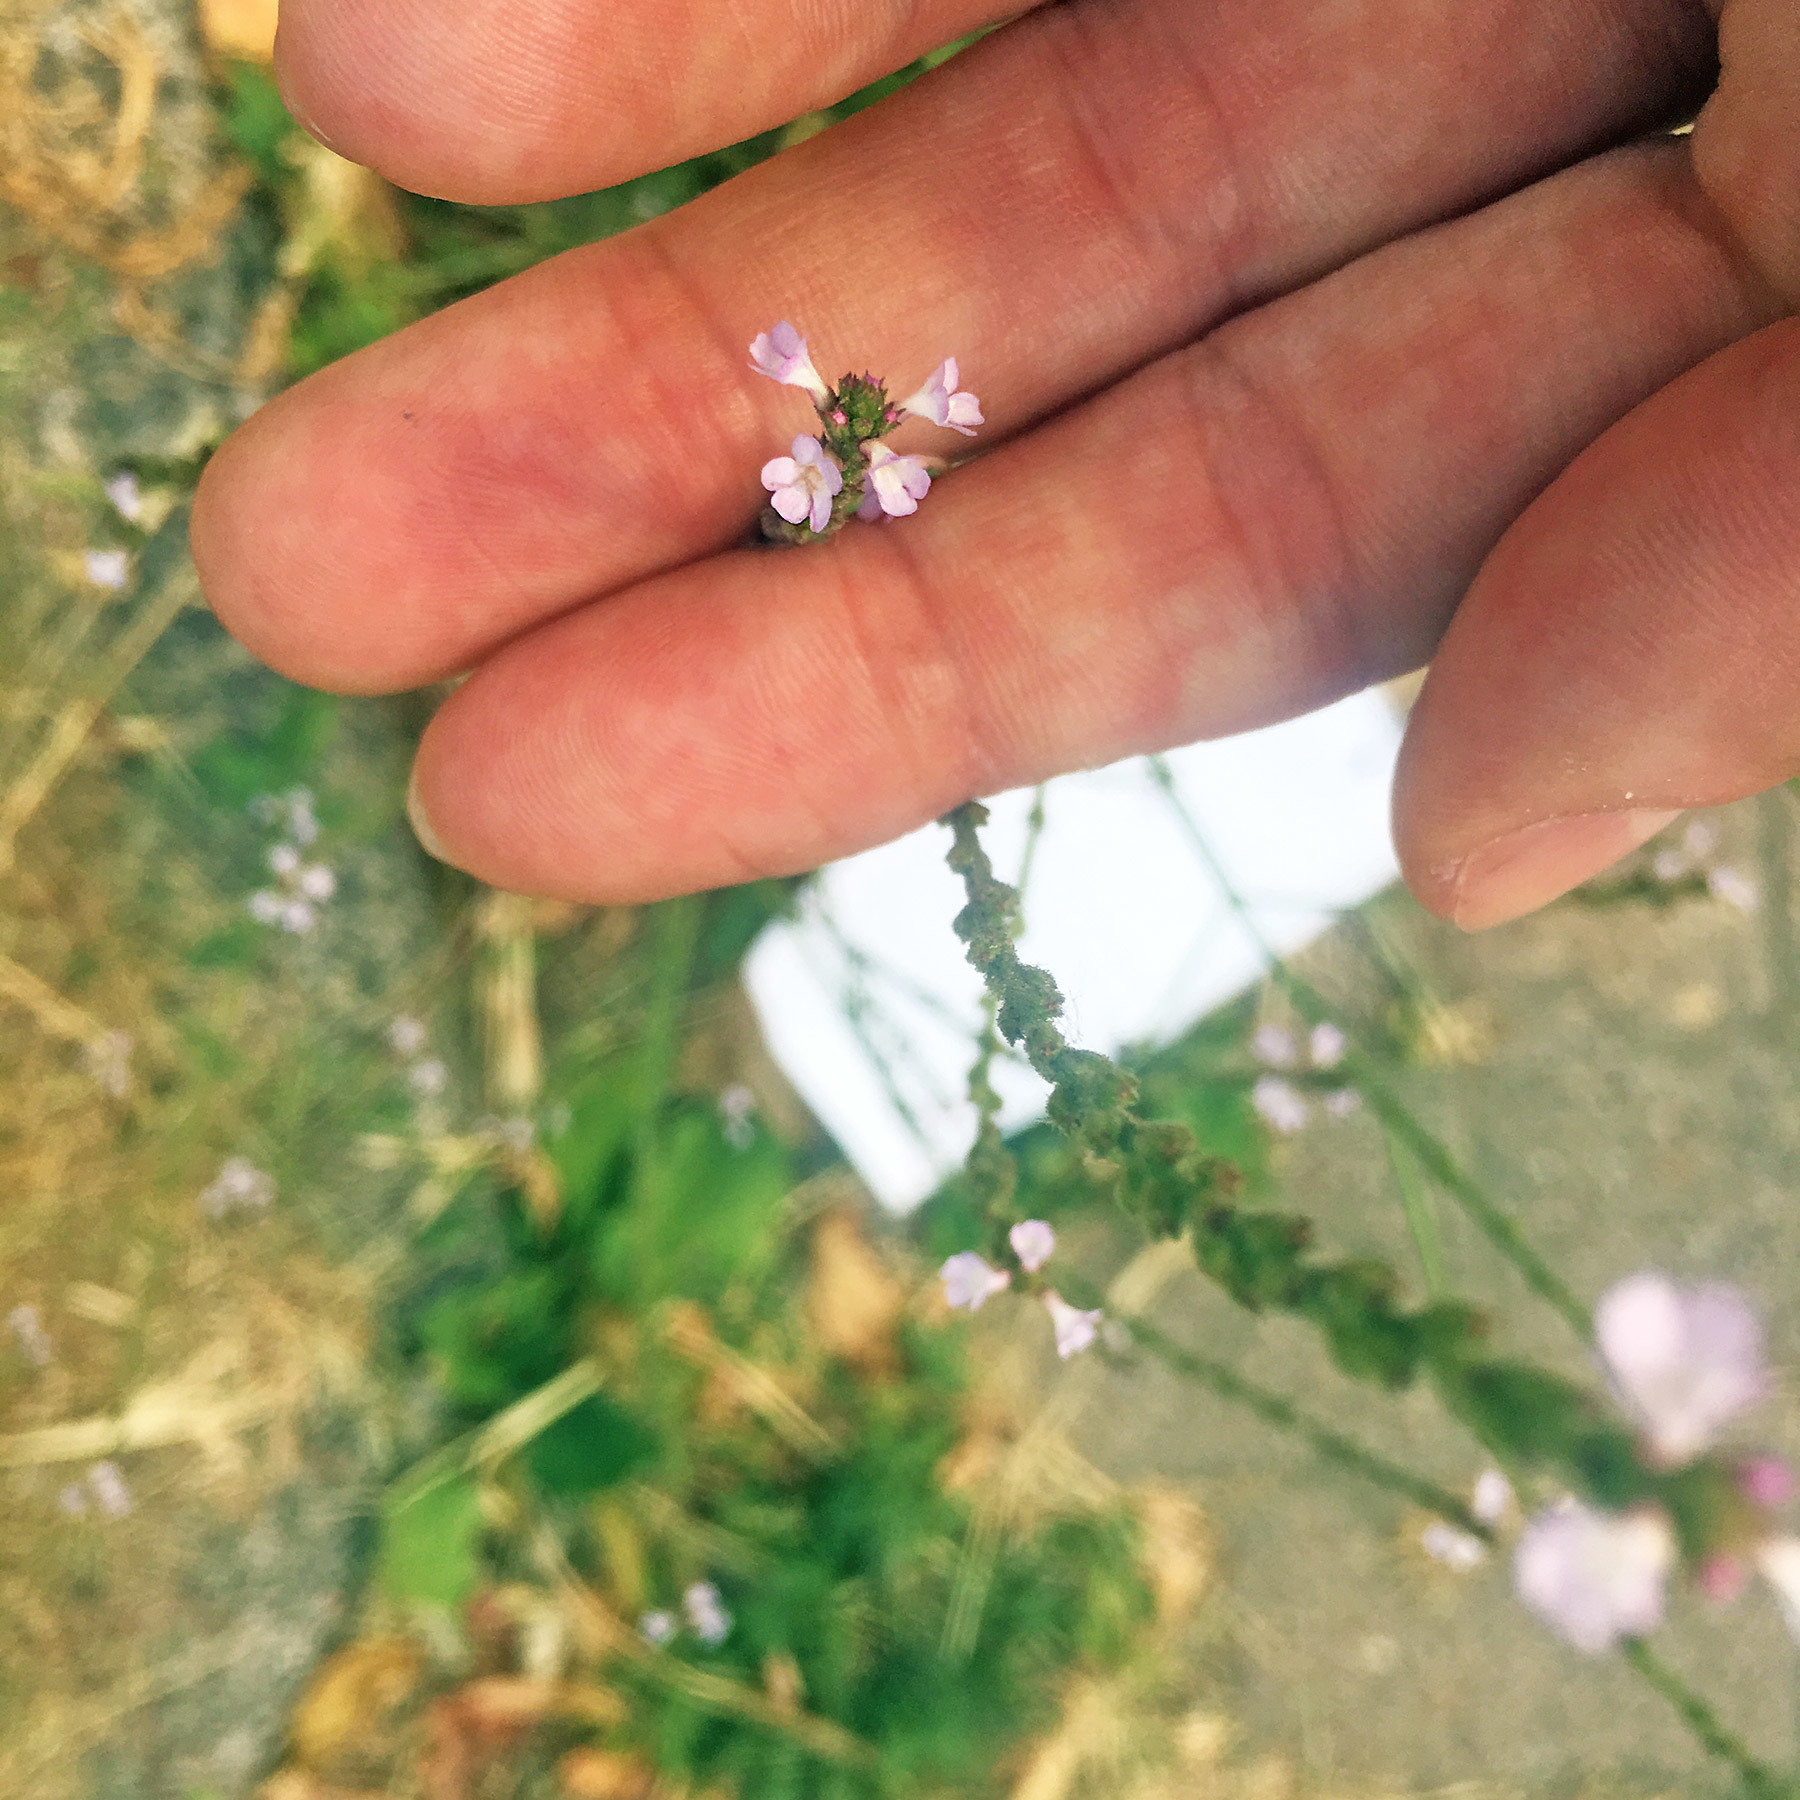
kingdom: Plantae
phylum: Tracheophyta
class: Magnoliopsida
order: Lamiales
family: Verbenaceae
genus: Verbena
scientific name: Verbena officinalis
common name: Vervain
